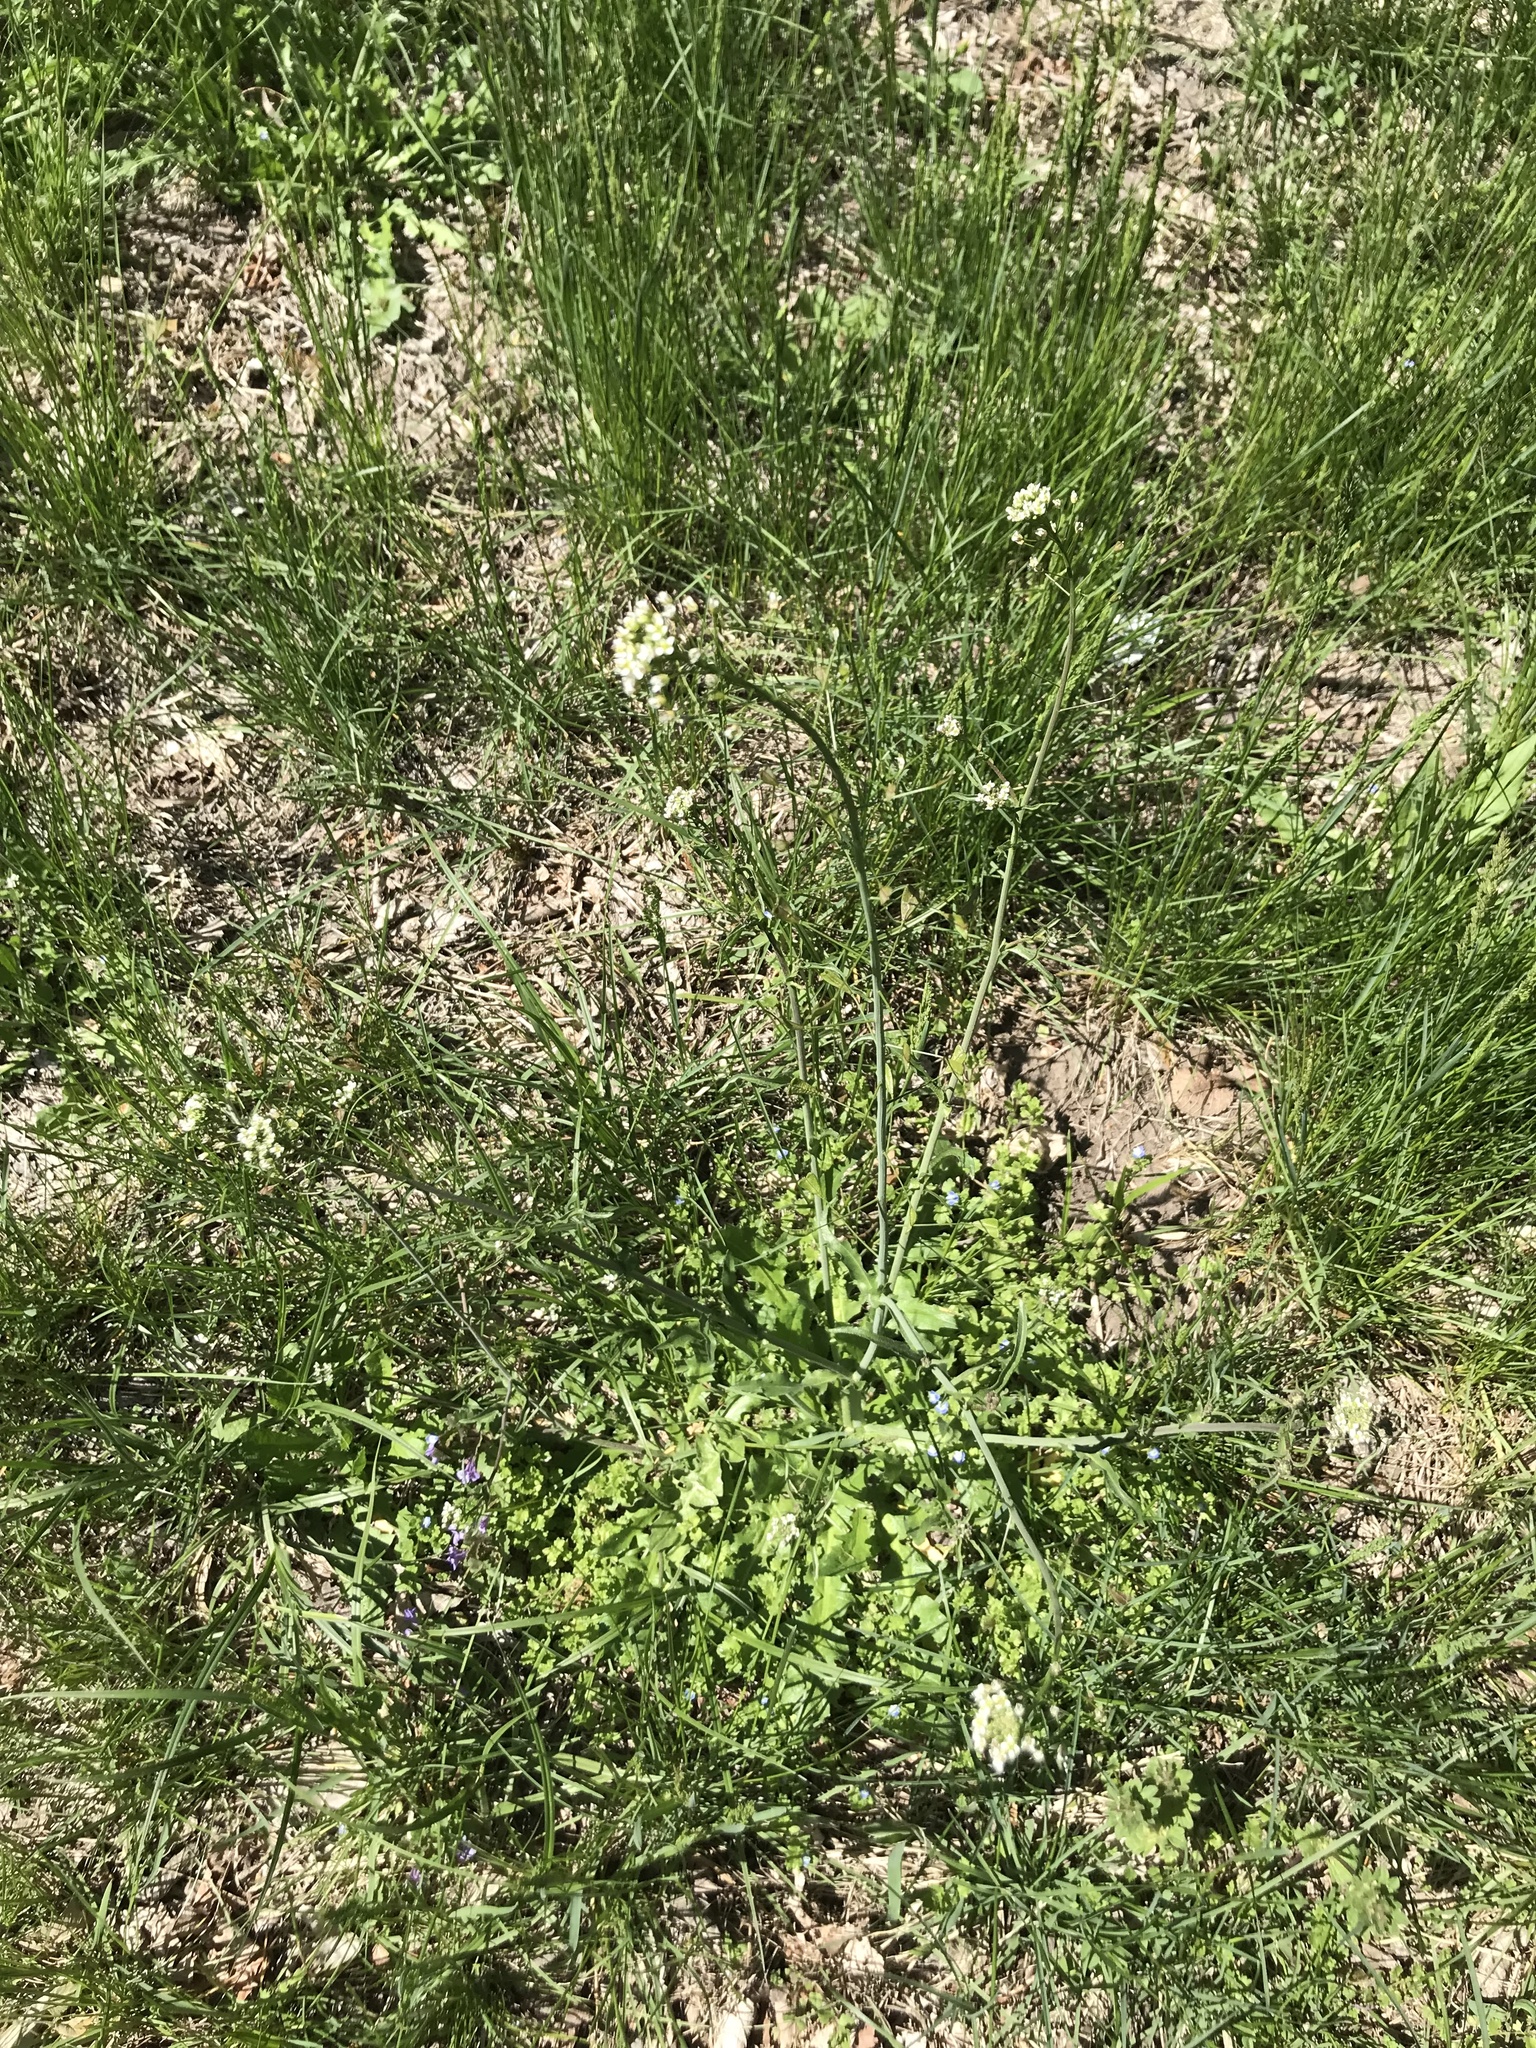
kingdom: Plantae
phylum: Tracheophyta
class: Magnoliopsida
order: Brassicales
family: Brassicaceae
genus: Capsella
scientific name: Capsella bursa-pastoris
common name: Shepherd's purse
